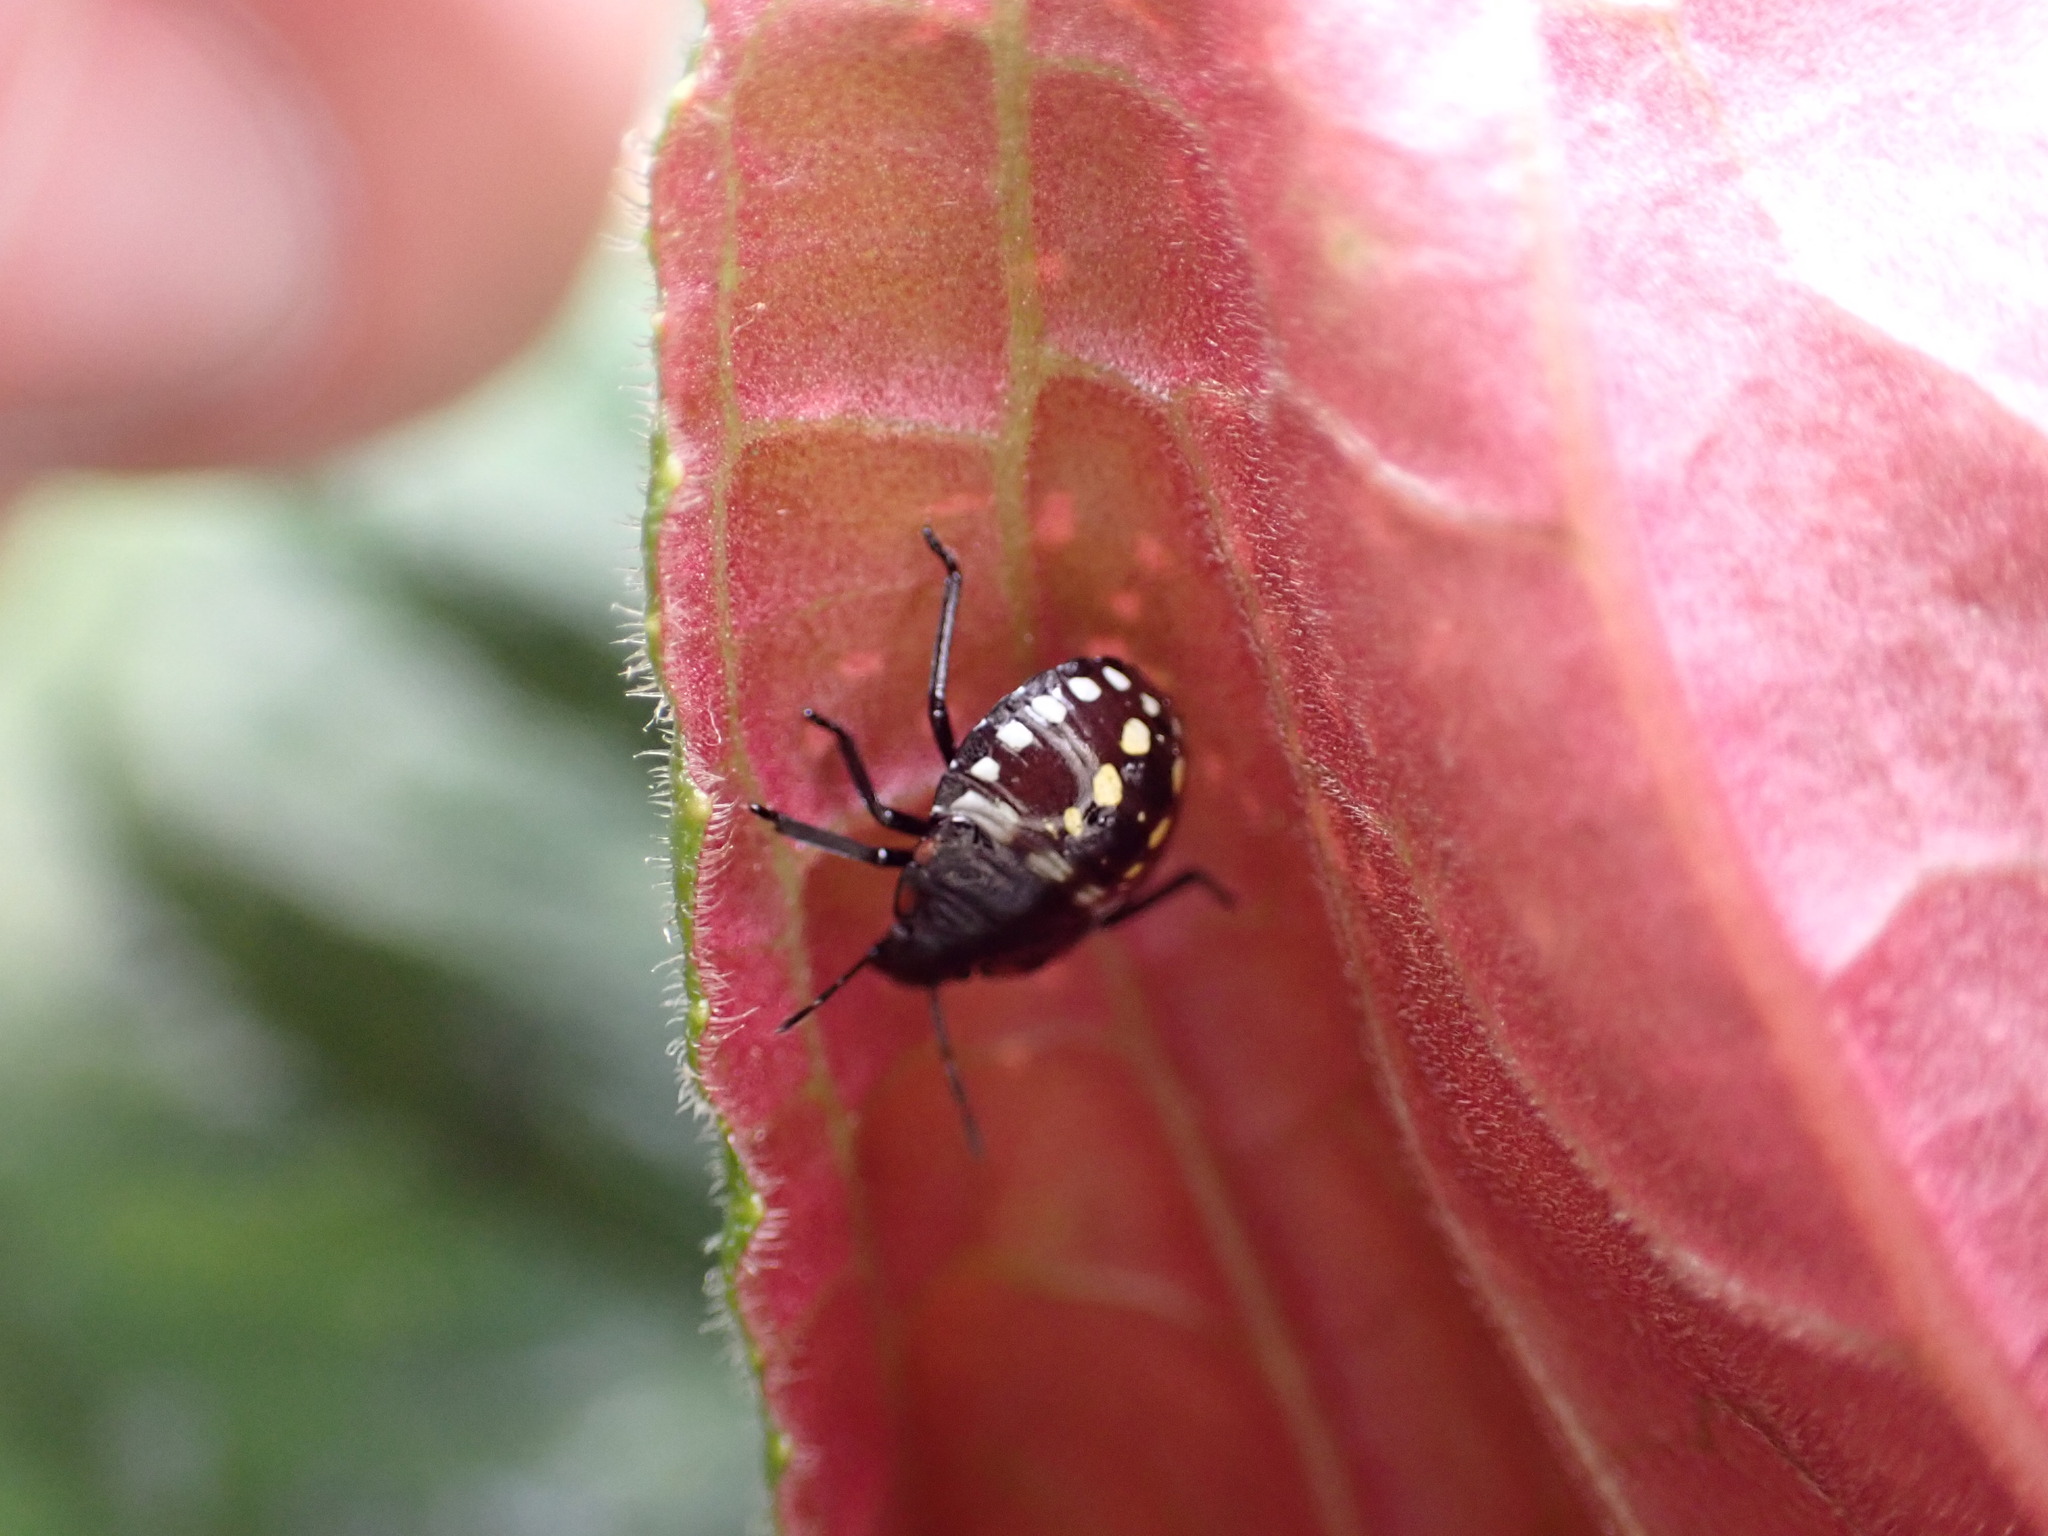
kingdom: Animalia
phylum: Arthropoda
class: Insecta
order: Hemiptera
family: Pentatomidae
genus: Nezara
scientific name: Nezara viridula
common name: Southern green stink bug
